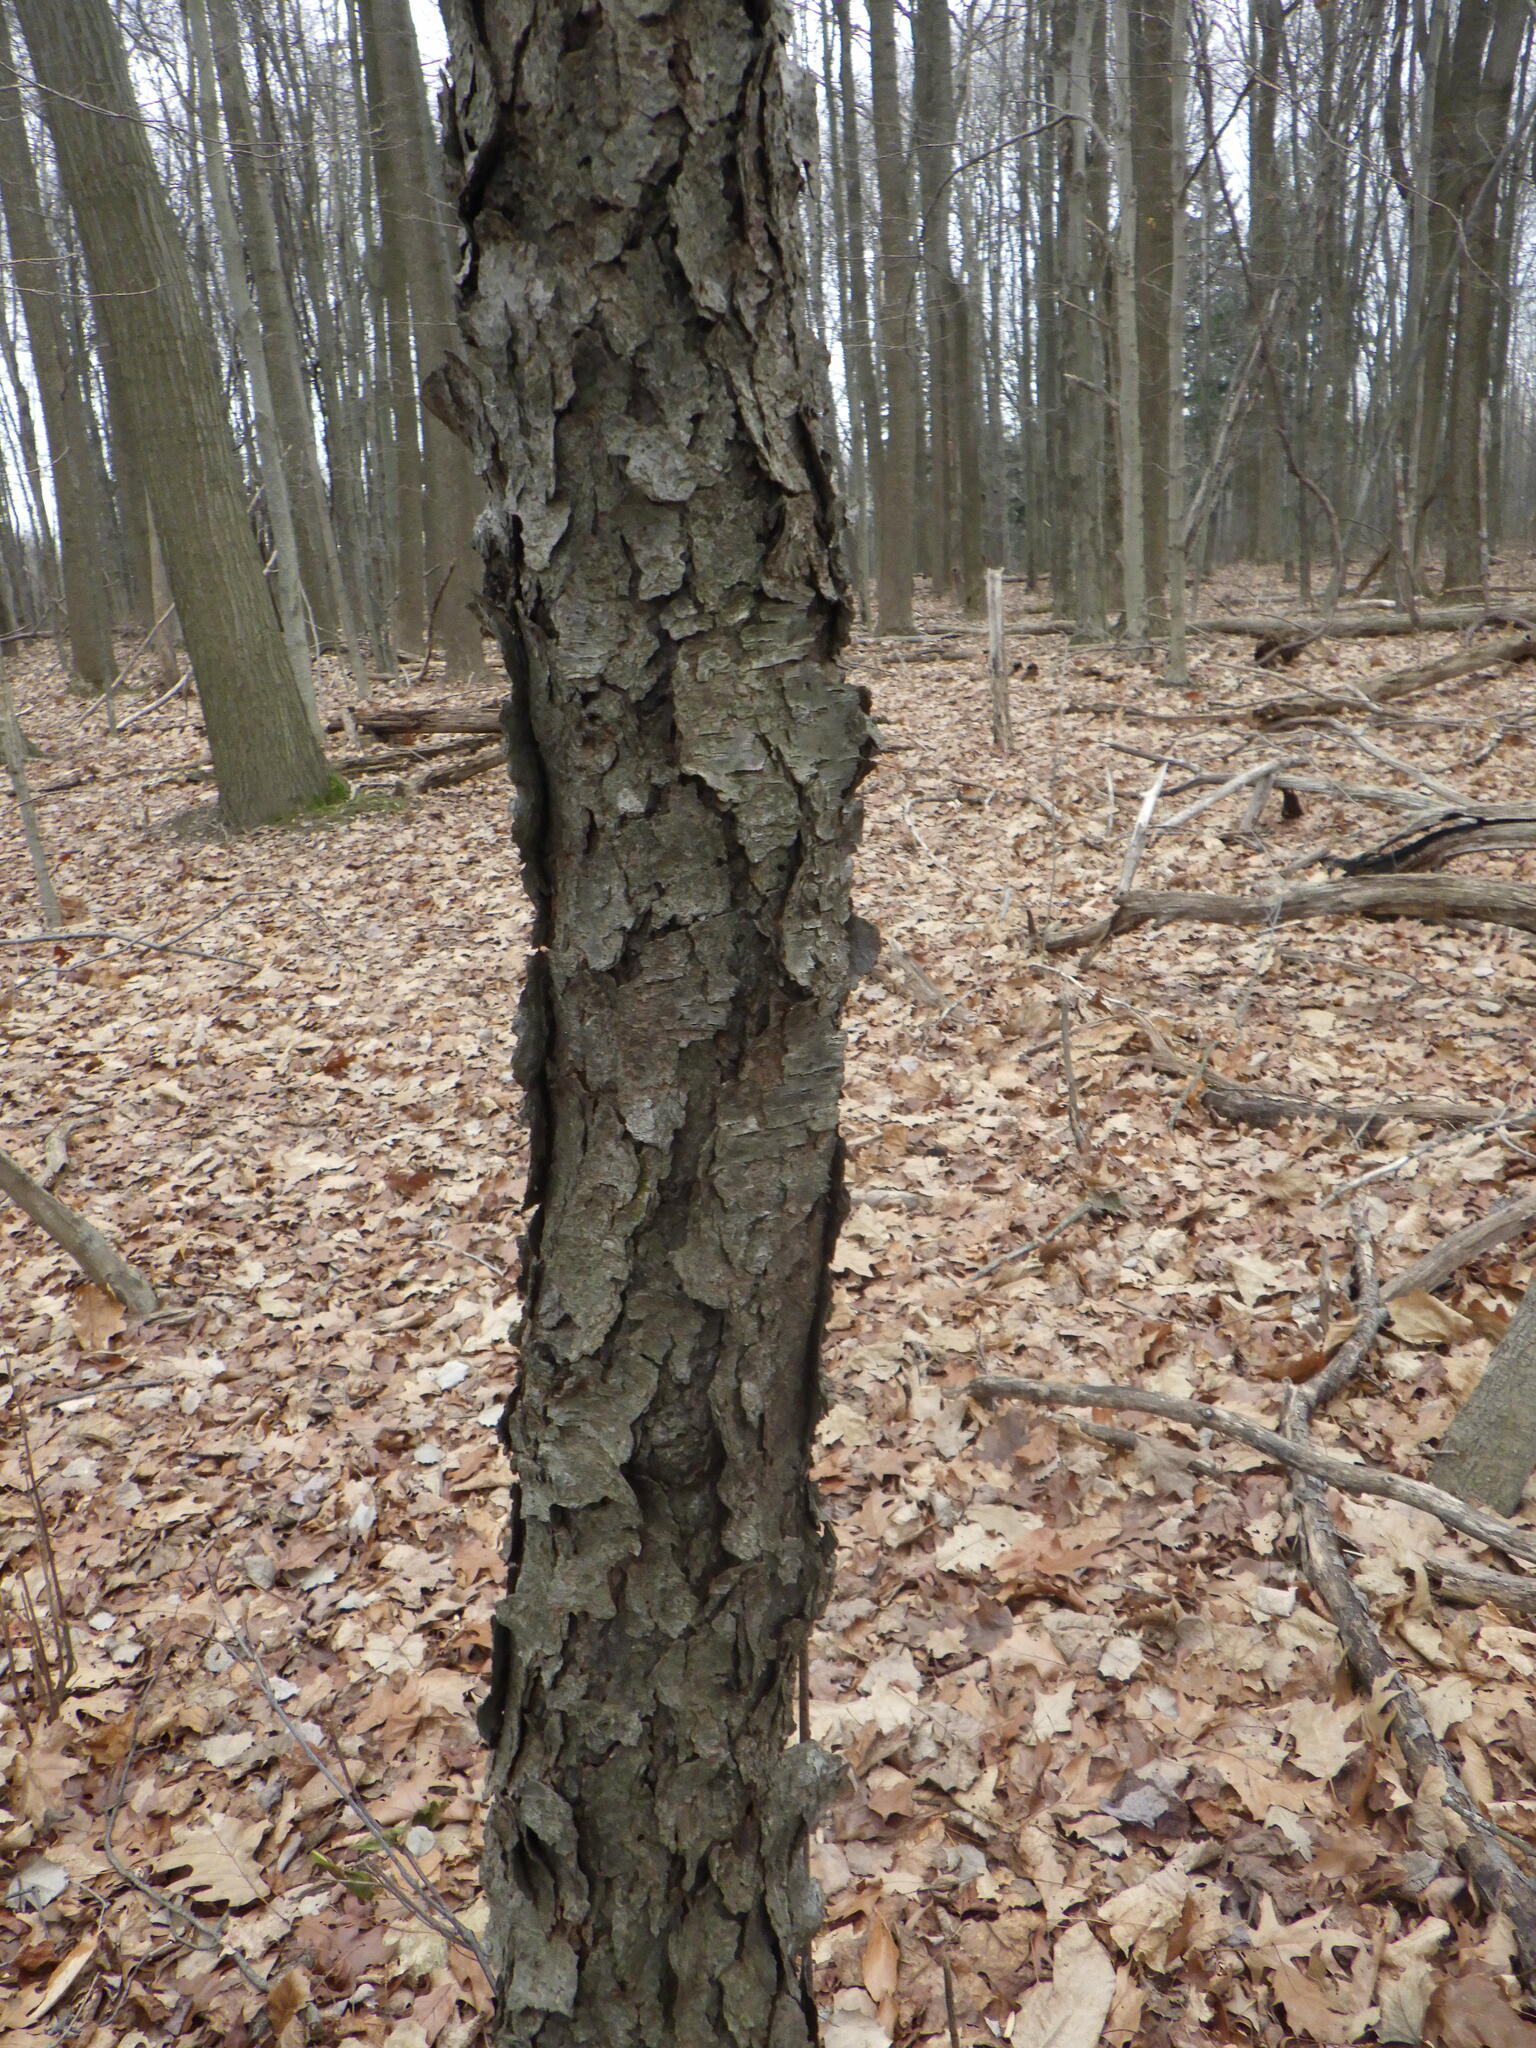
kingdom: Plantae
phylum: Tracheophyta
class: Magnoliopsida
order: Rosales
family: Rosaceae
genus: Prunus
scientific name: Prunus serotina
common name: Black cherry
